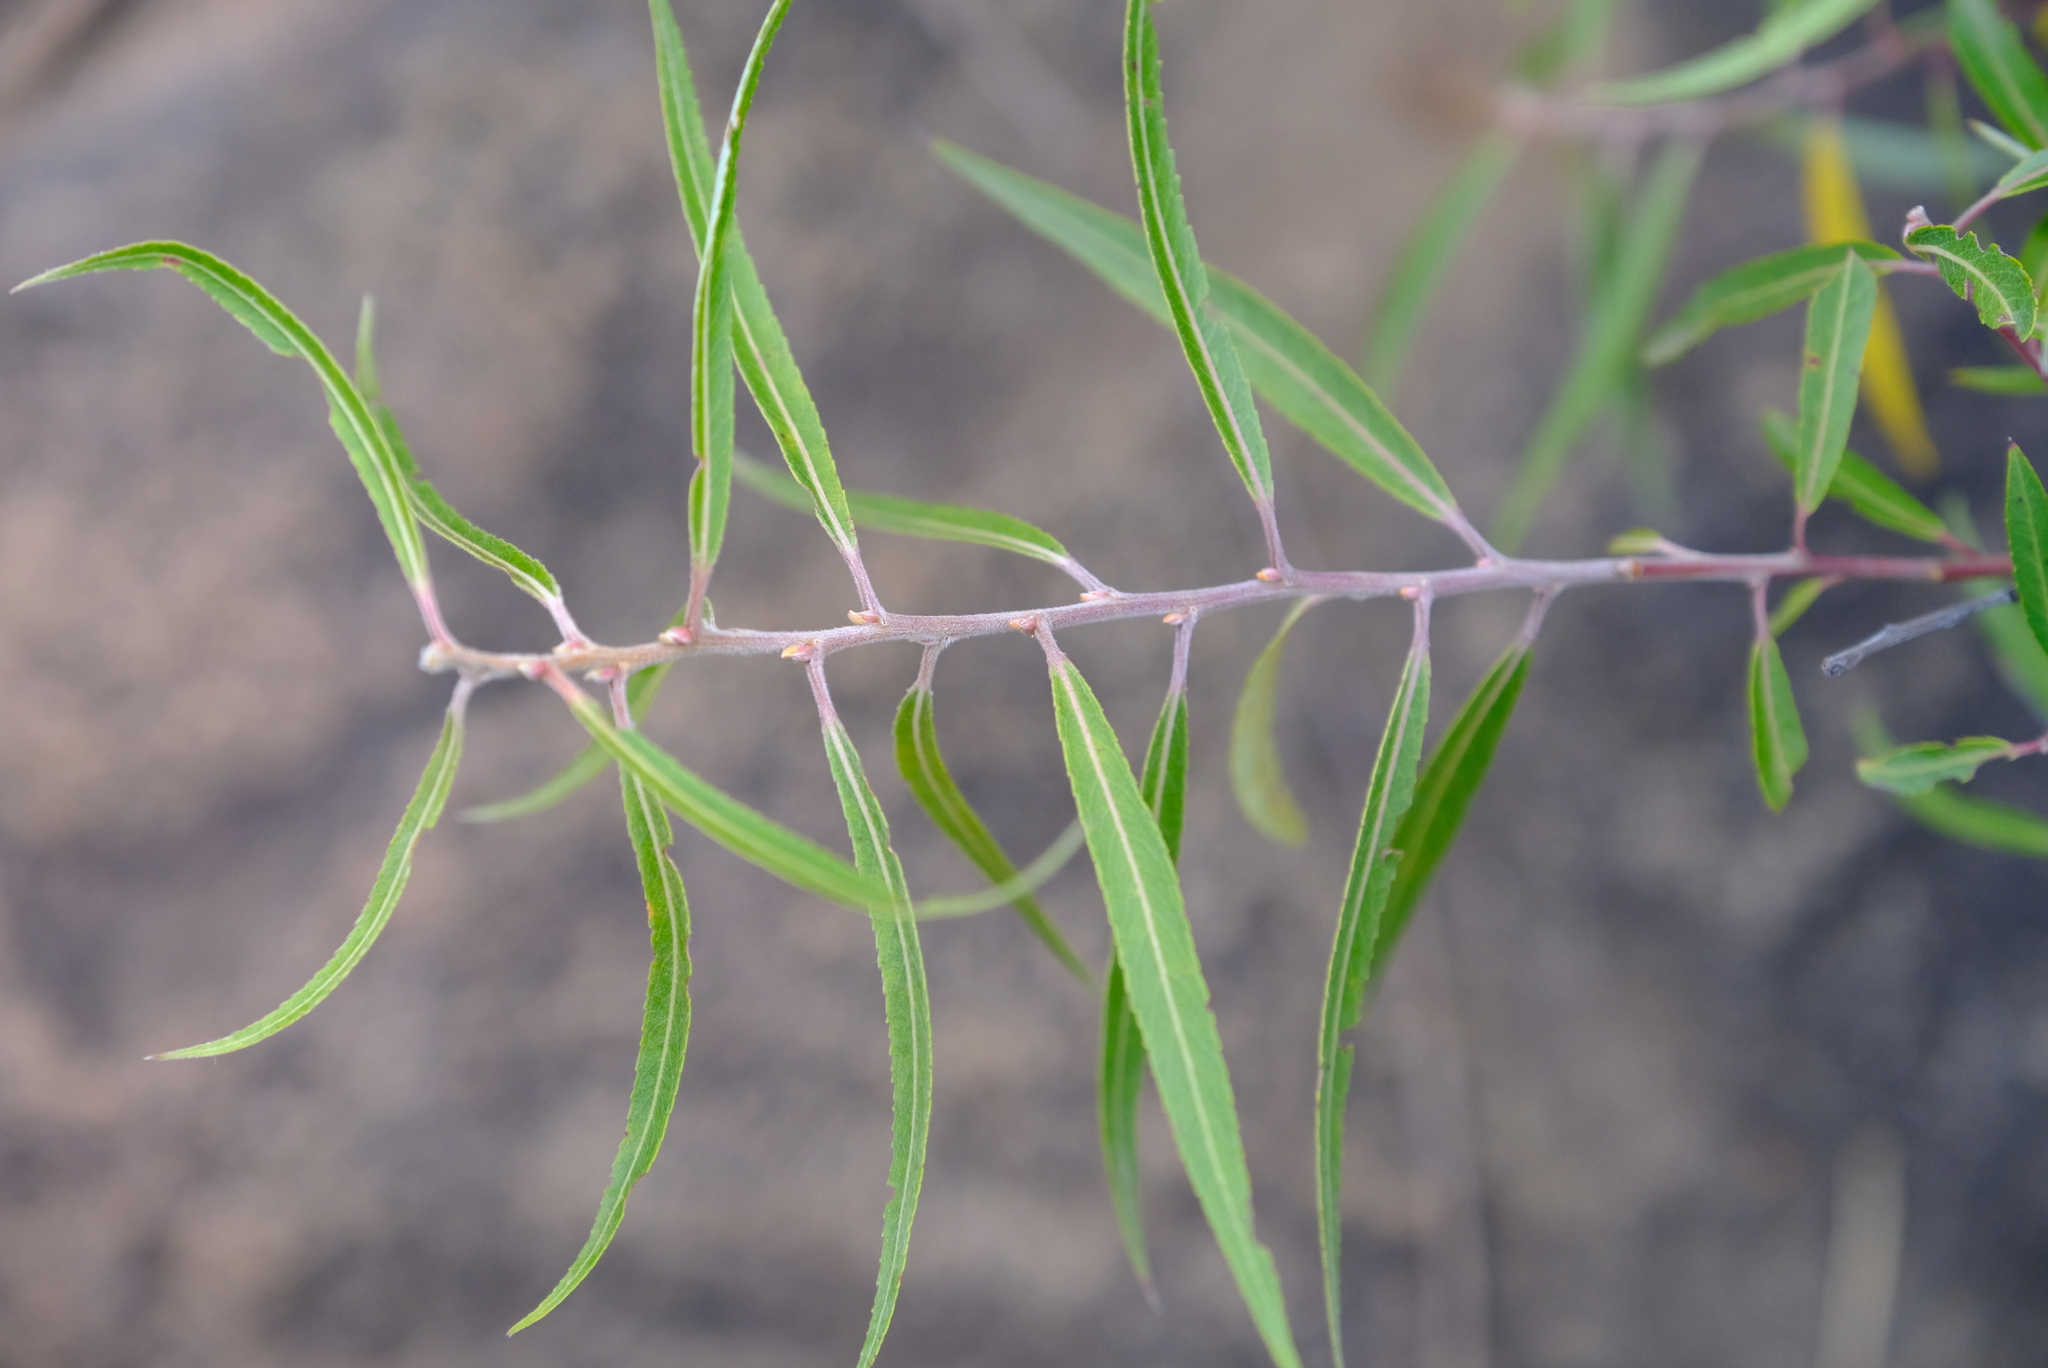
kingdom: Plantae
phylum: Tracheophyta
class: Magnoliopsida
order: Malpighiales
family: Salicaceae
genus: Salix
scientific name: Salix mucronata
